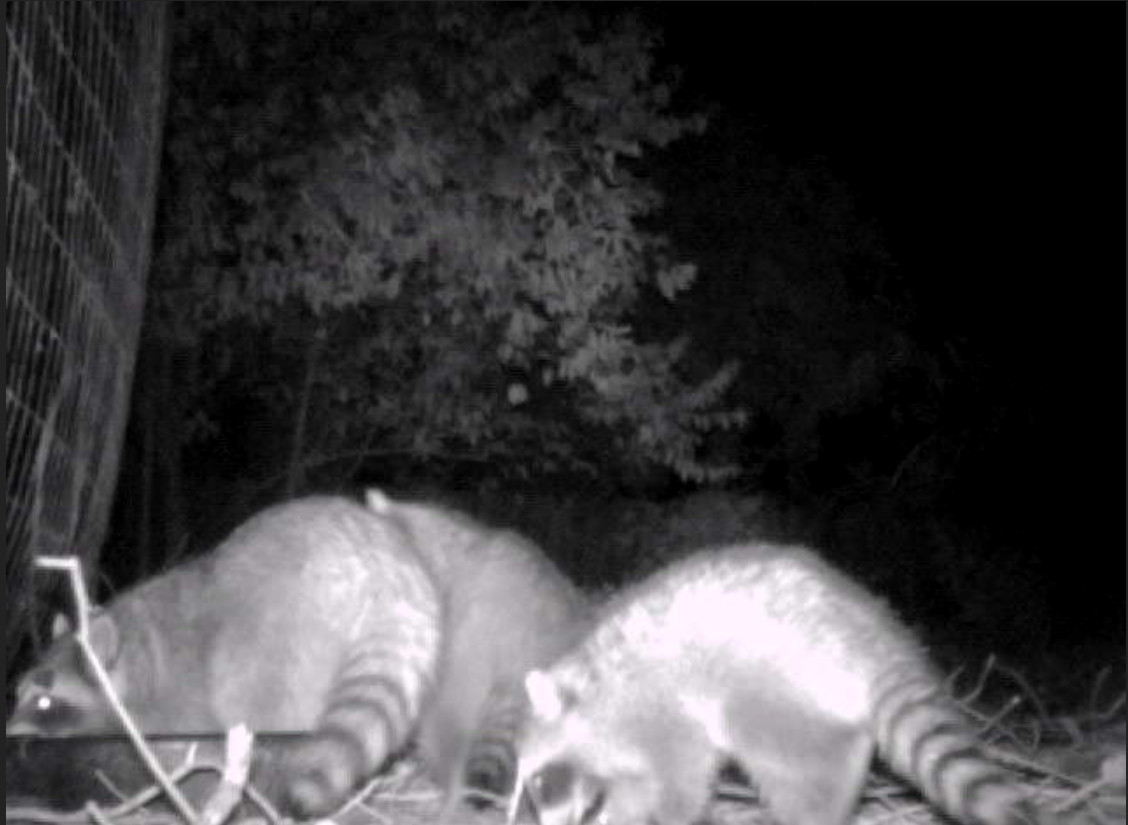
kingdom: Animalia
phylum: Chordata
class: Mammalia
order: Carnivora
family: Procyonidae
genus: Procyon
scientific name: Procyon lotor
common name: Raccoon
